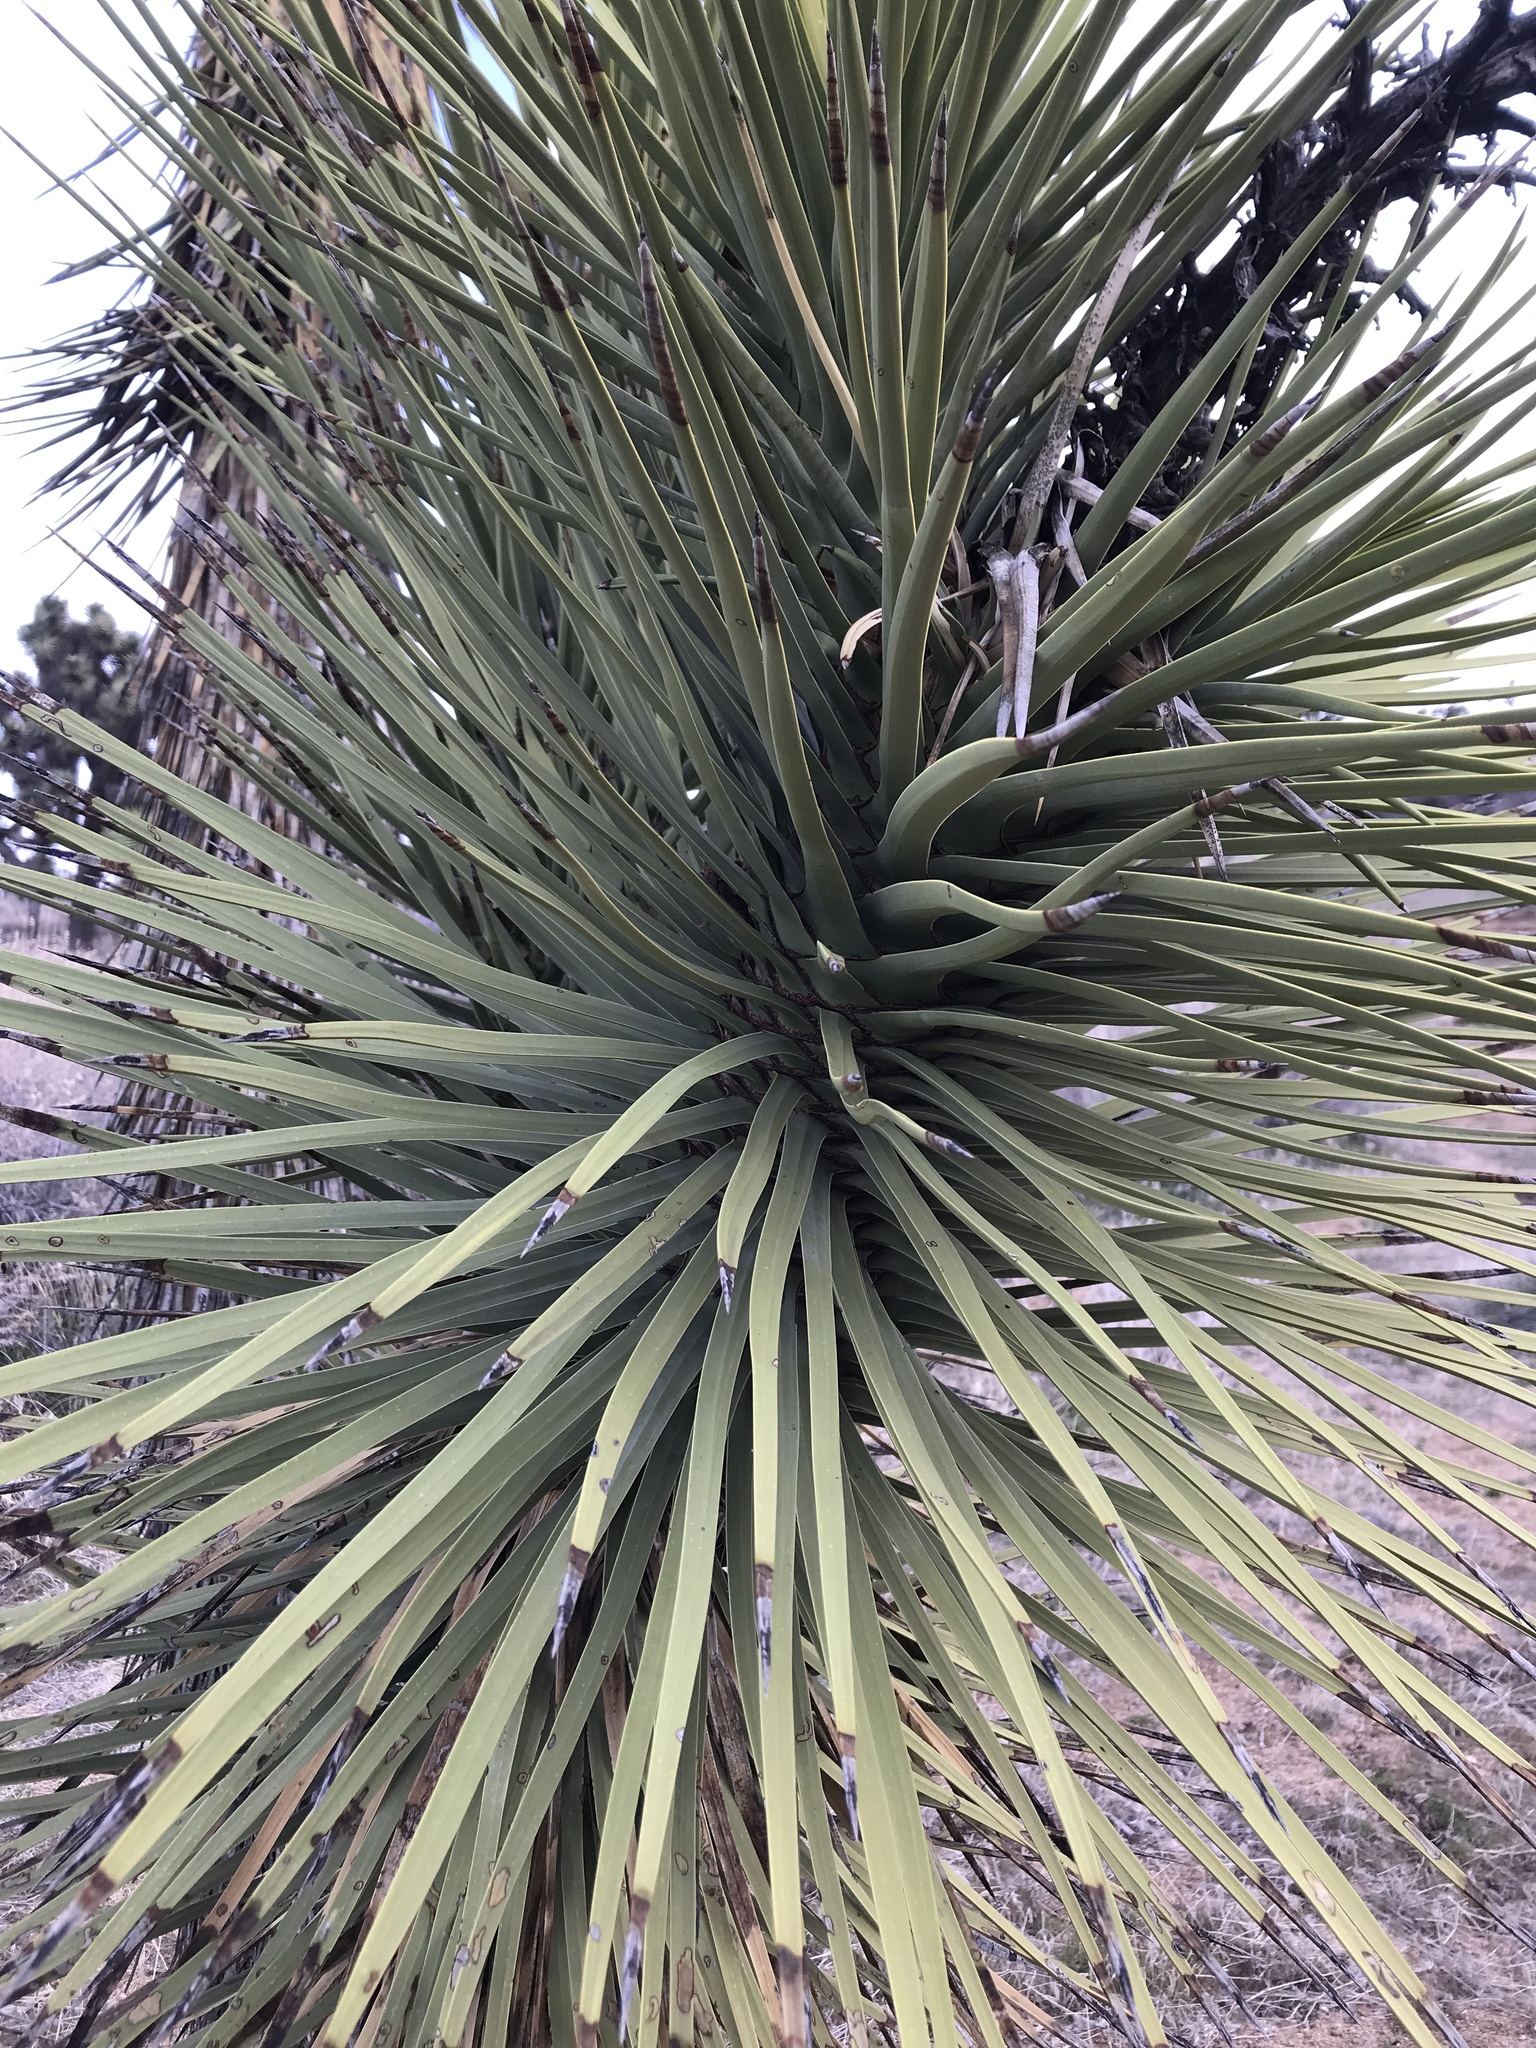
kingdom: Plantae
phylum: Tracheophyta
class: Liliopsida
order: Asparagales
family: Asparagaceae
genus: Yucca
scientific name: Yucca brevifolia
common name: Joshua tree
